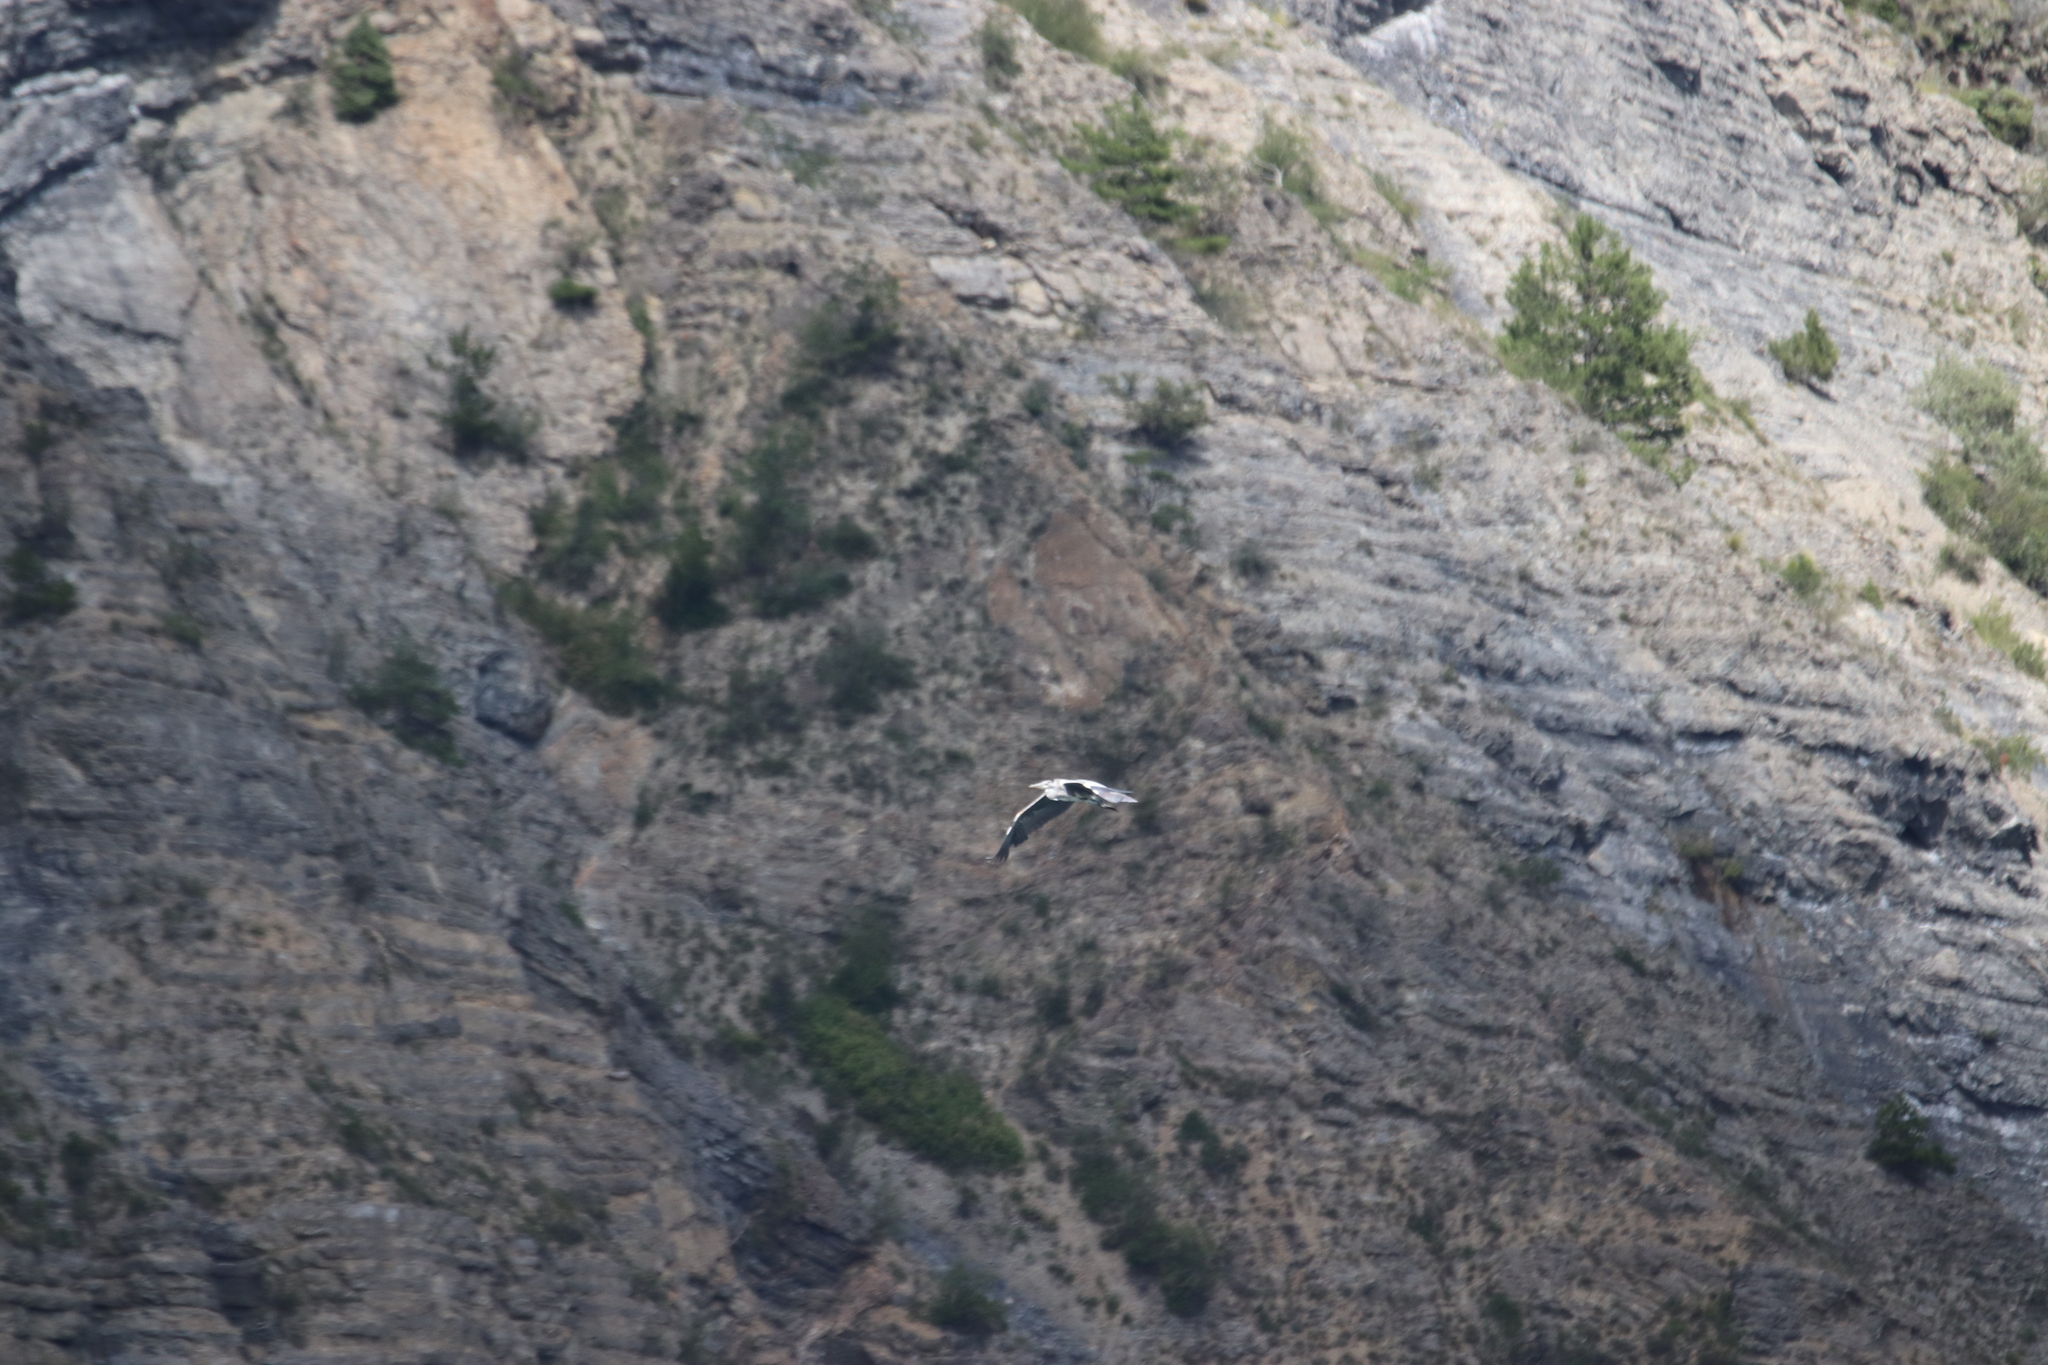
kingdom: Animalia
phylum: Chordata
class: Aves
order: Pelecaniformes
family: Ardeidae
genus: Ardea
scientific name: Ardea cinerea
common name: Grey heron
